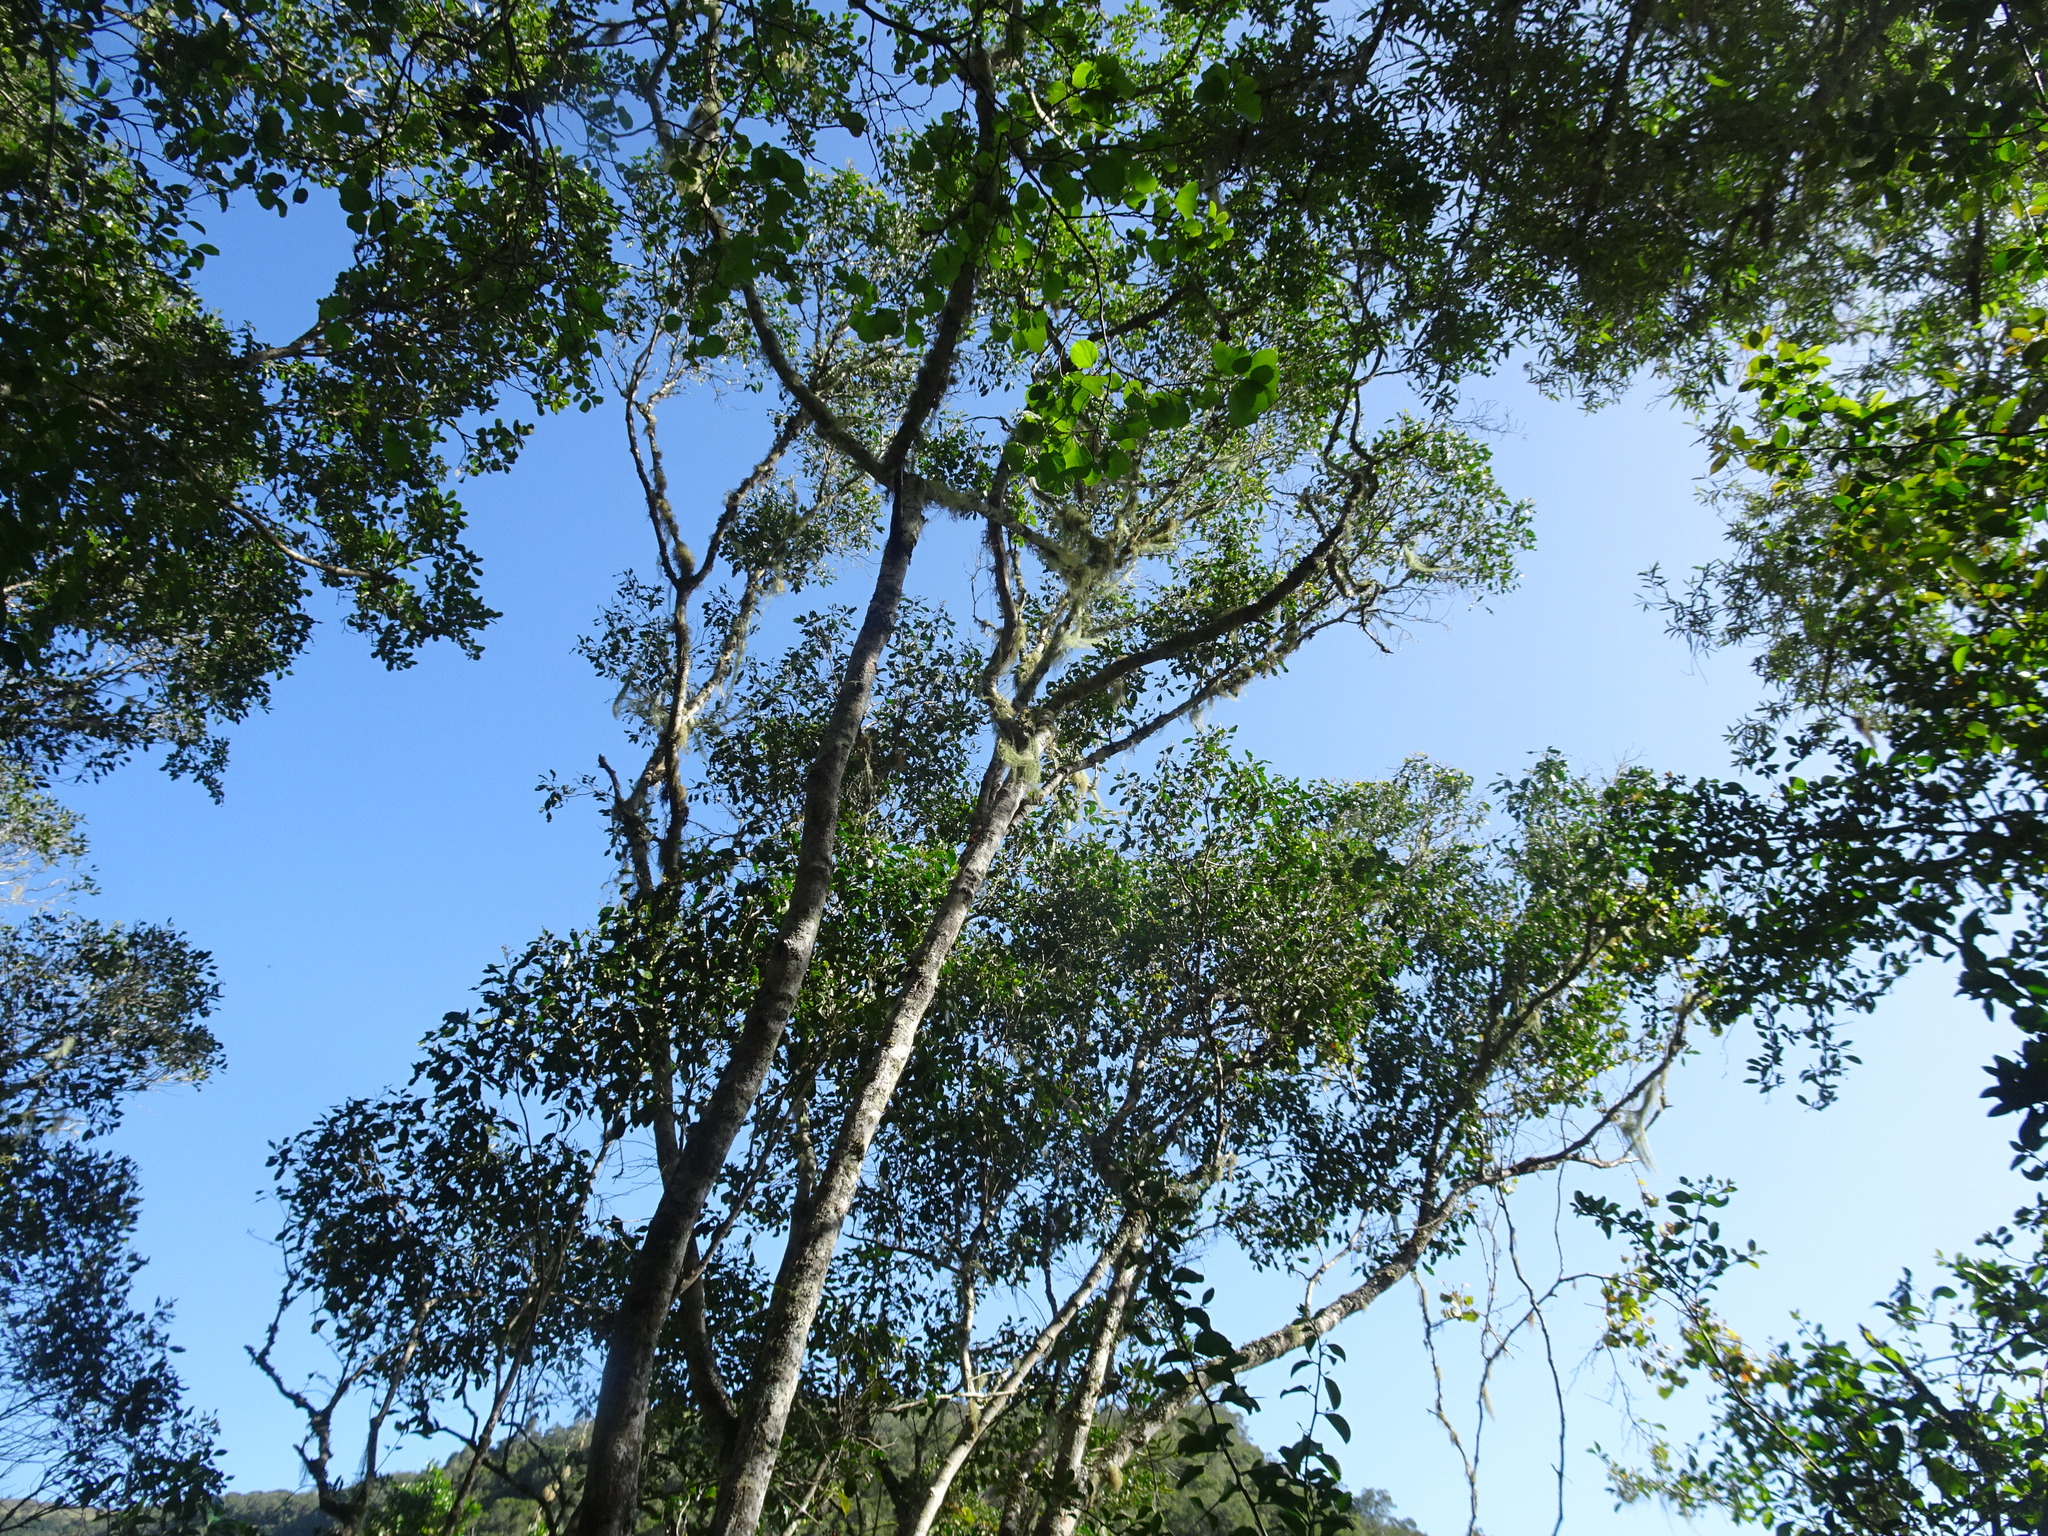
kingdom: Plantae
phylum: Tracheophyta
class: Magnoliopsida
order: Lamiales
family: Oleaceae
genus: Olea
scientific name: Olea capensis
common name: Black ironwood
